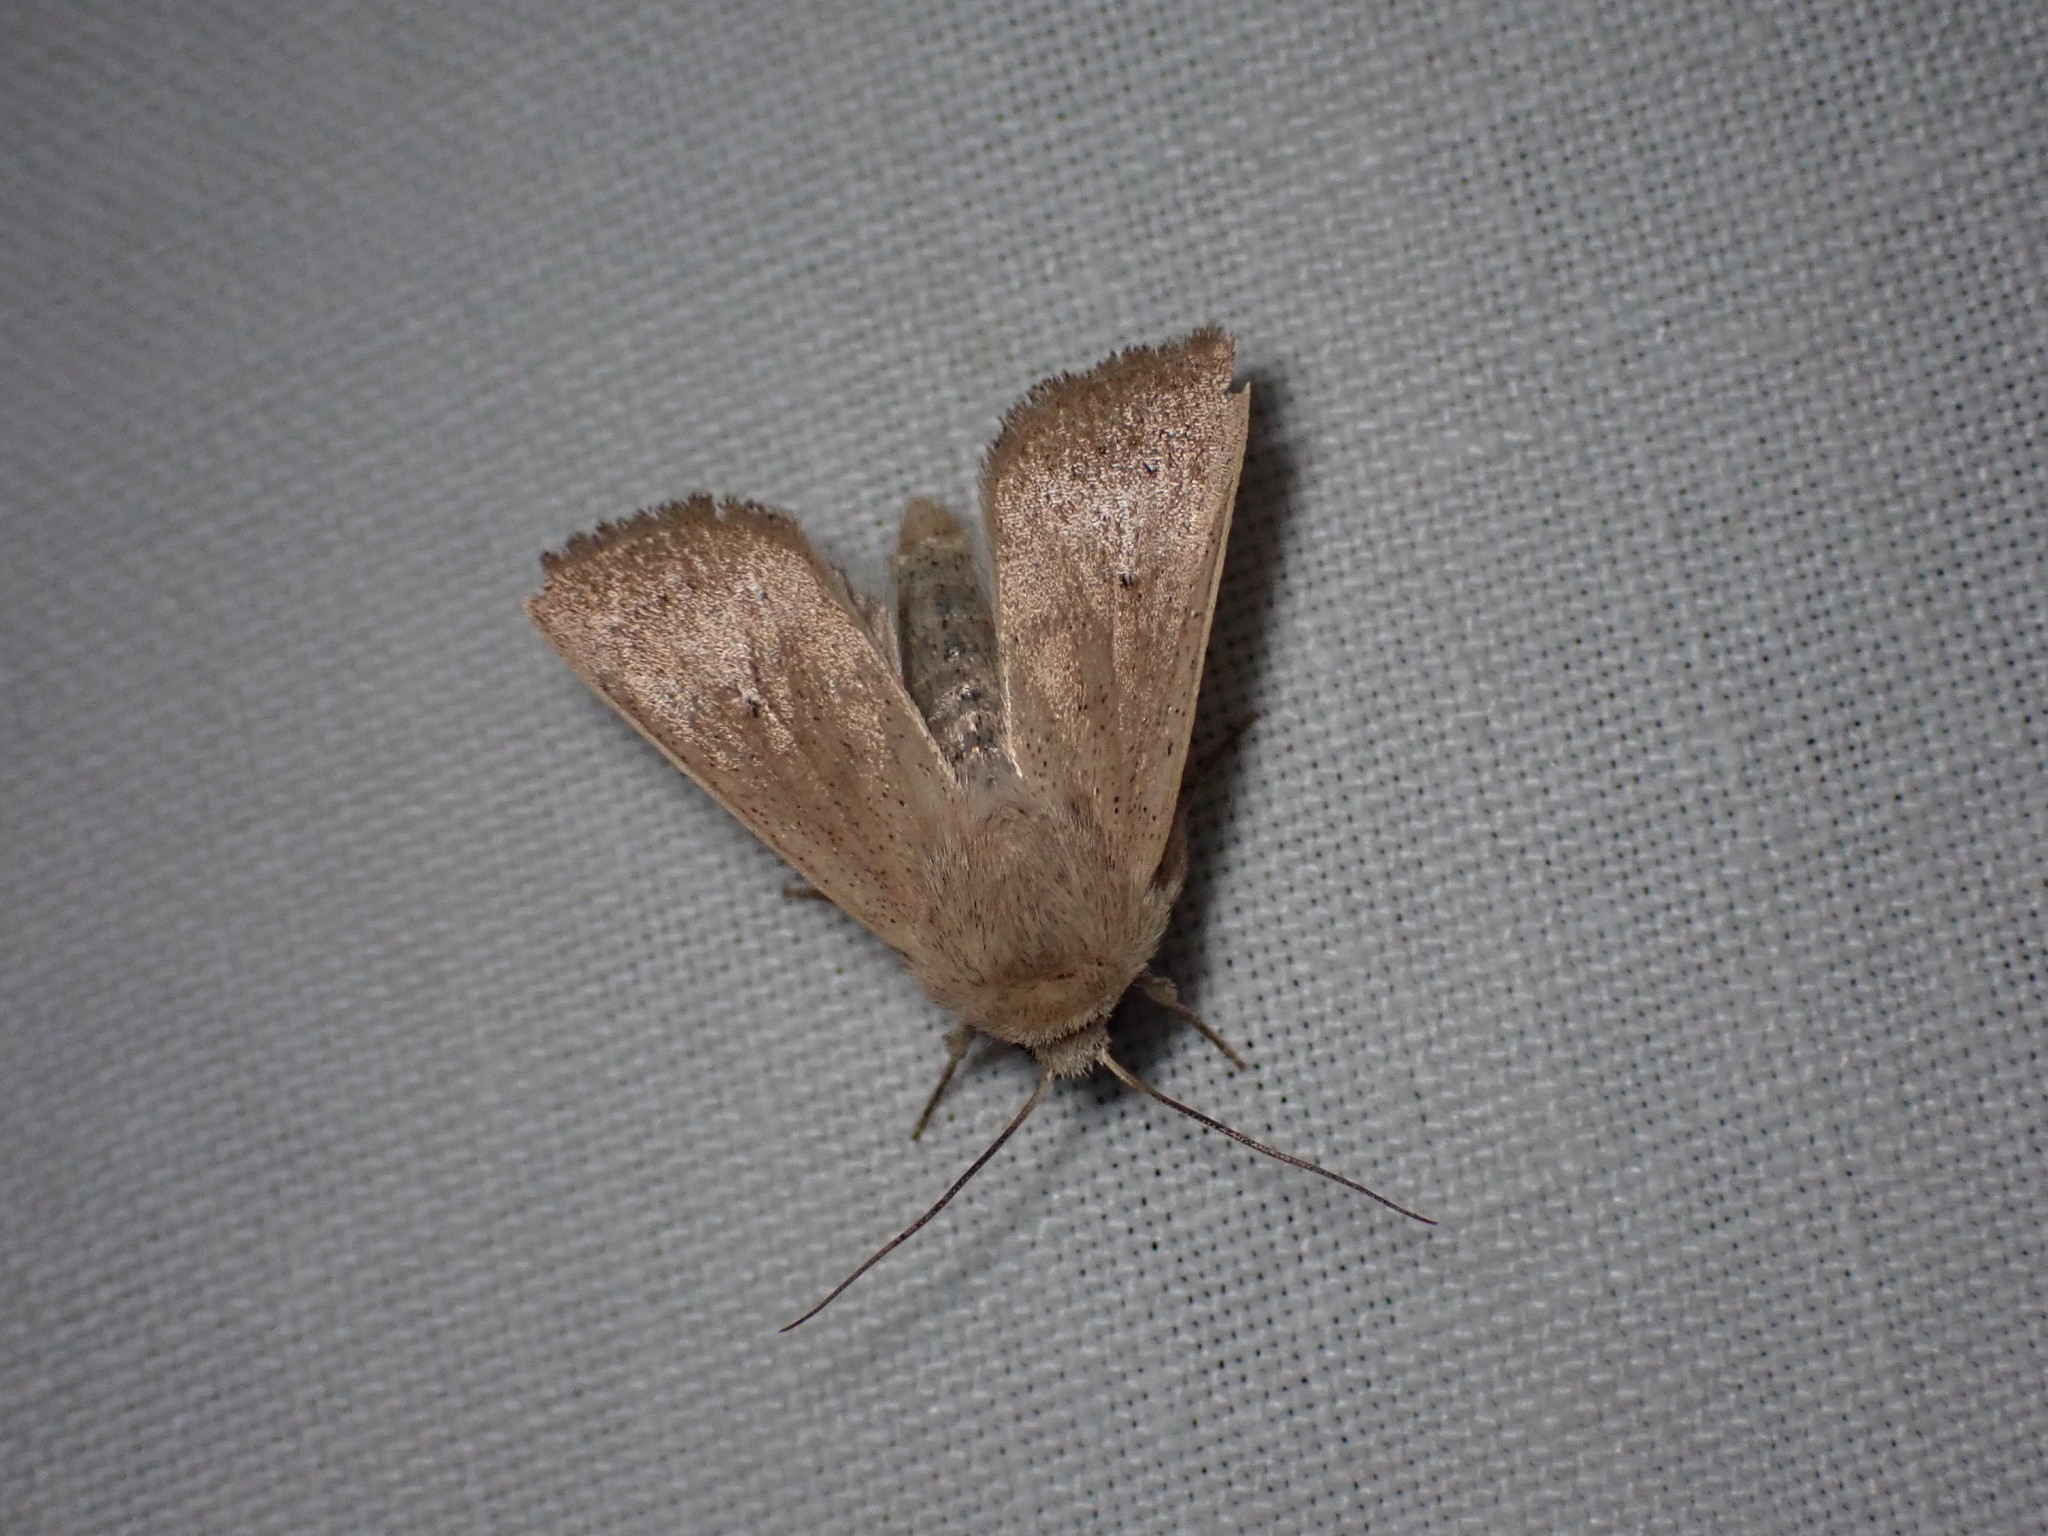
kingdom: Animalia
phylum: Arthropoda
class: Insecta
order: Lepidoptera
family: Noctuidae
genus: Mythimna
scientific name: Mythimna sicula
